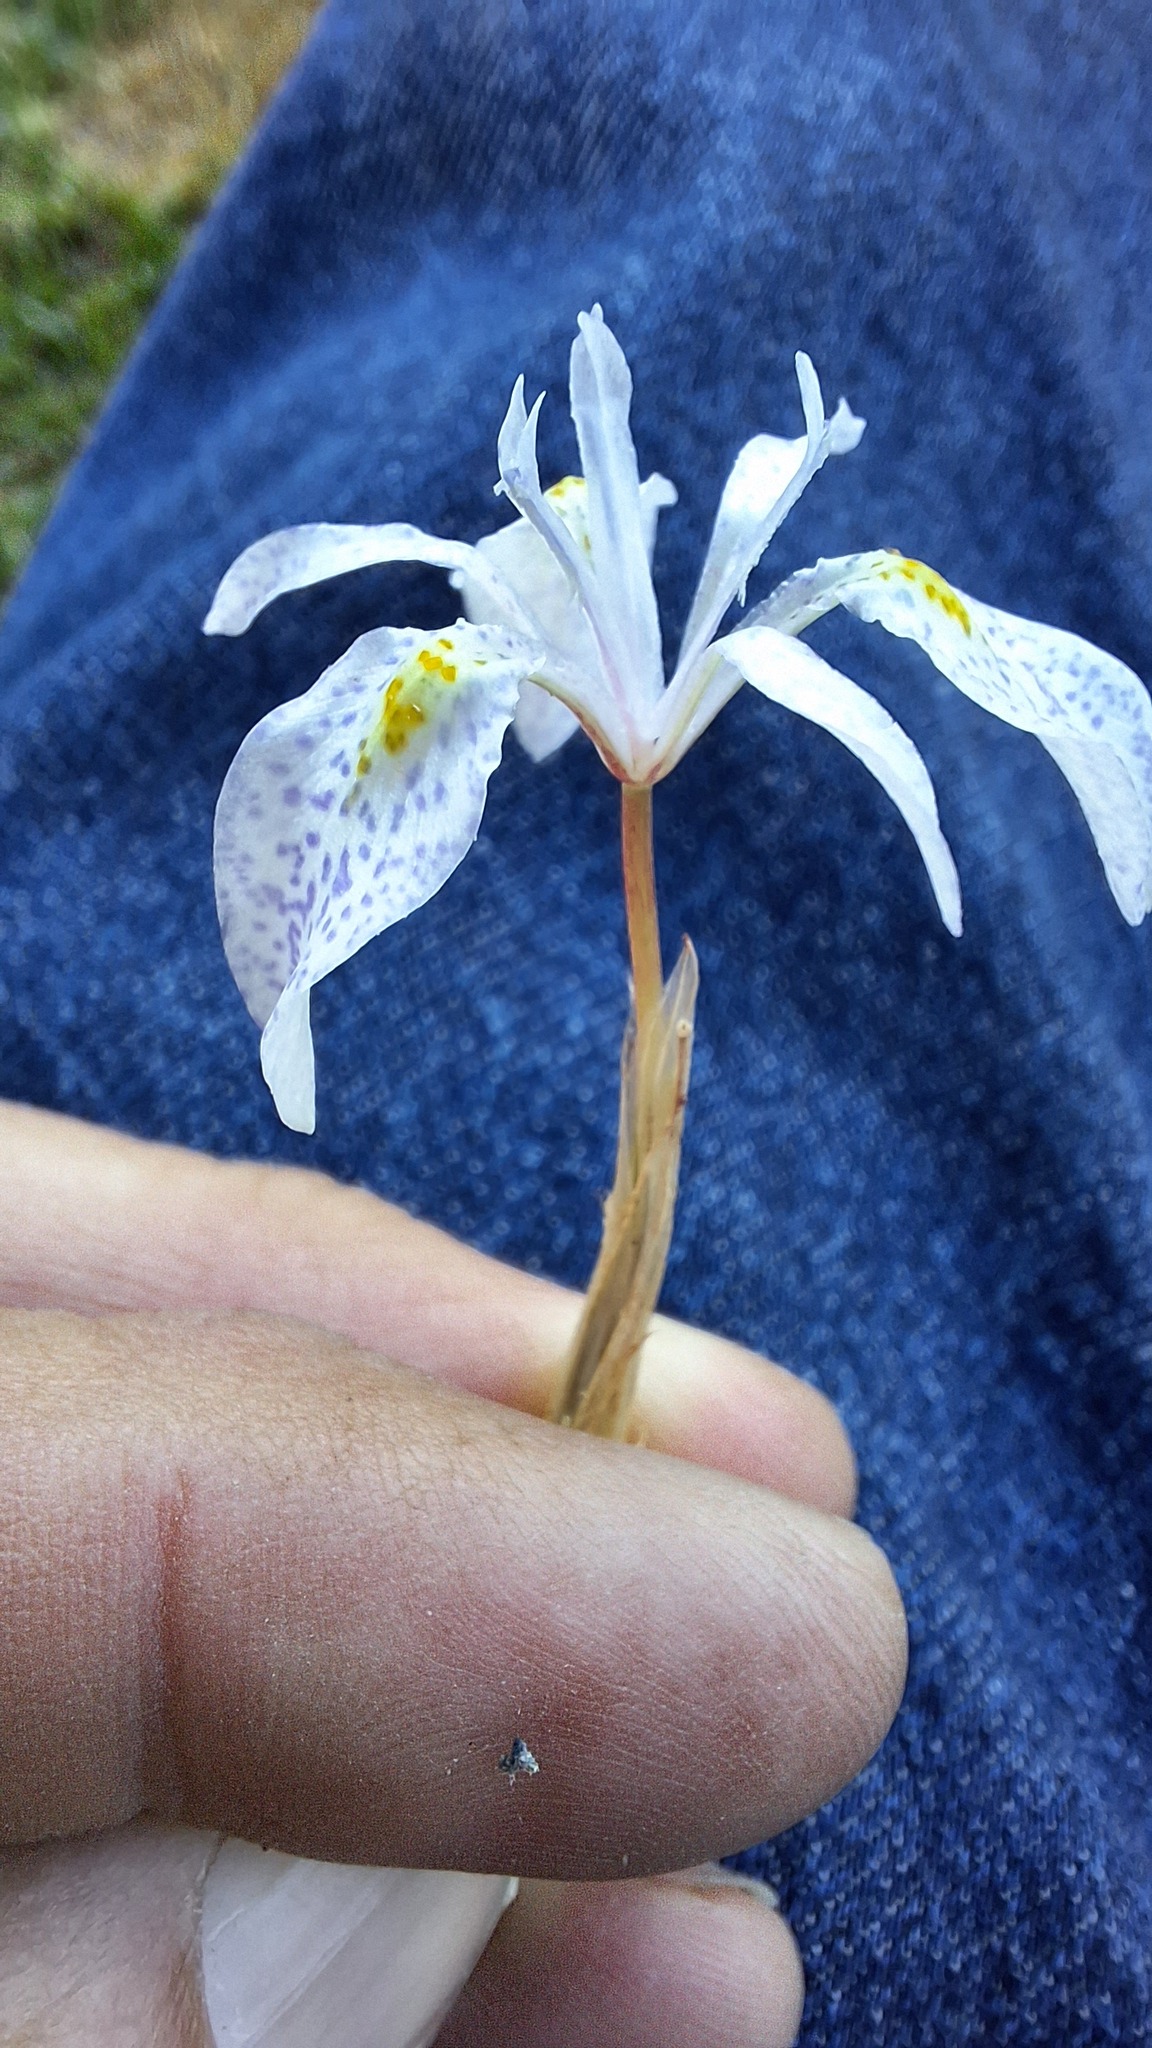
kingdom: Plantae
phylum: Tracheophyta
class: Liliopsida
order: Asparagales
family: Iridaceae
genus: Moraea
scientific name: Moraea simulans
